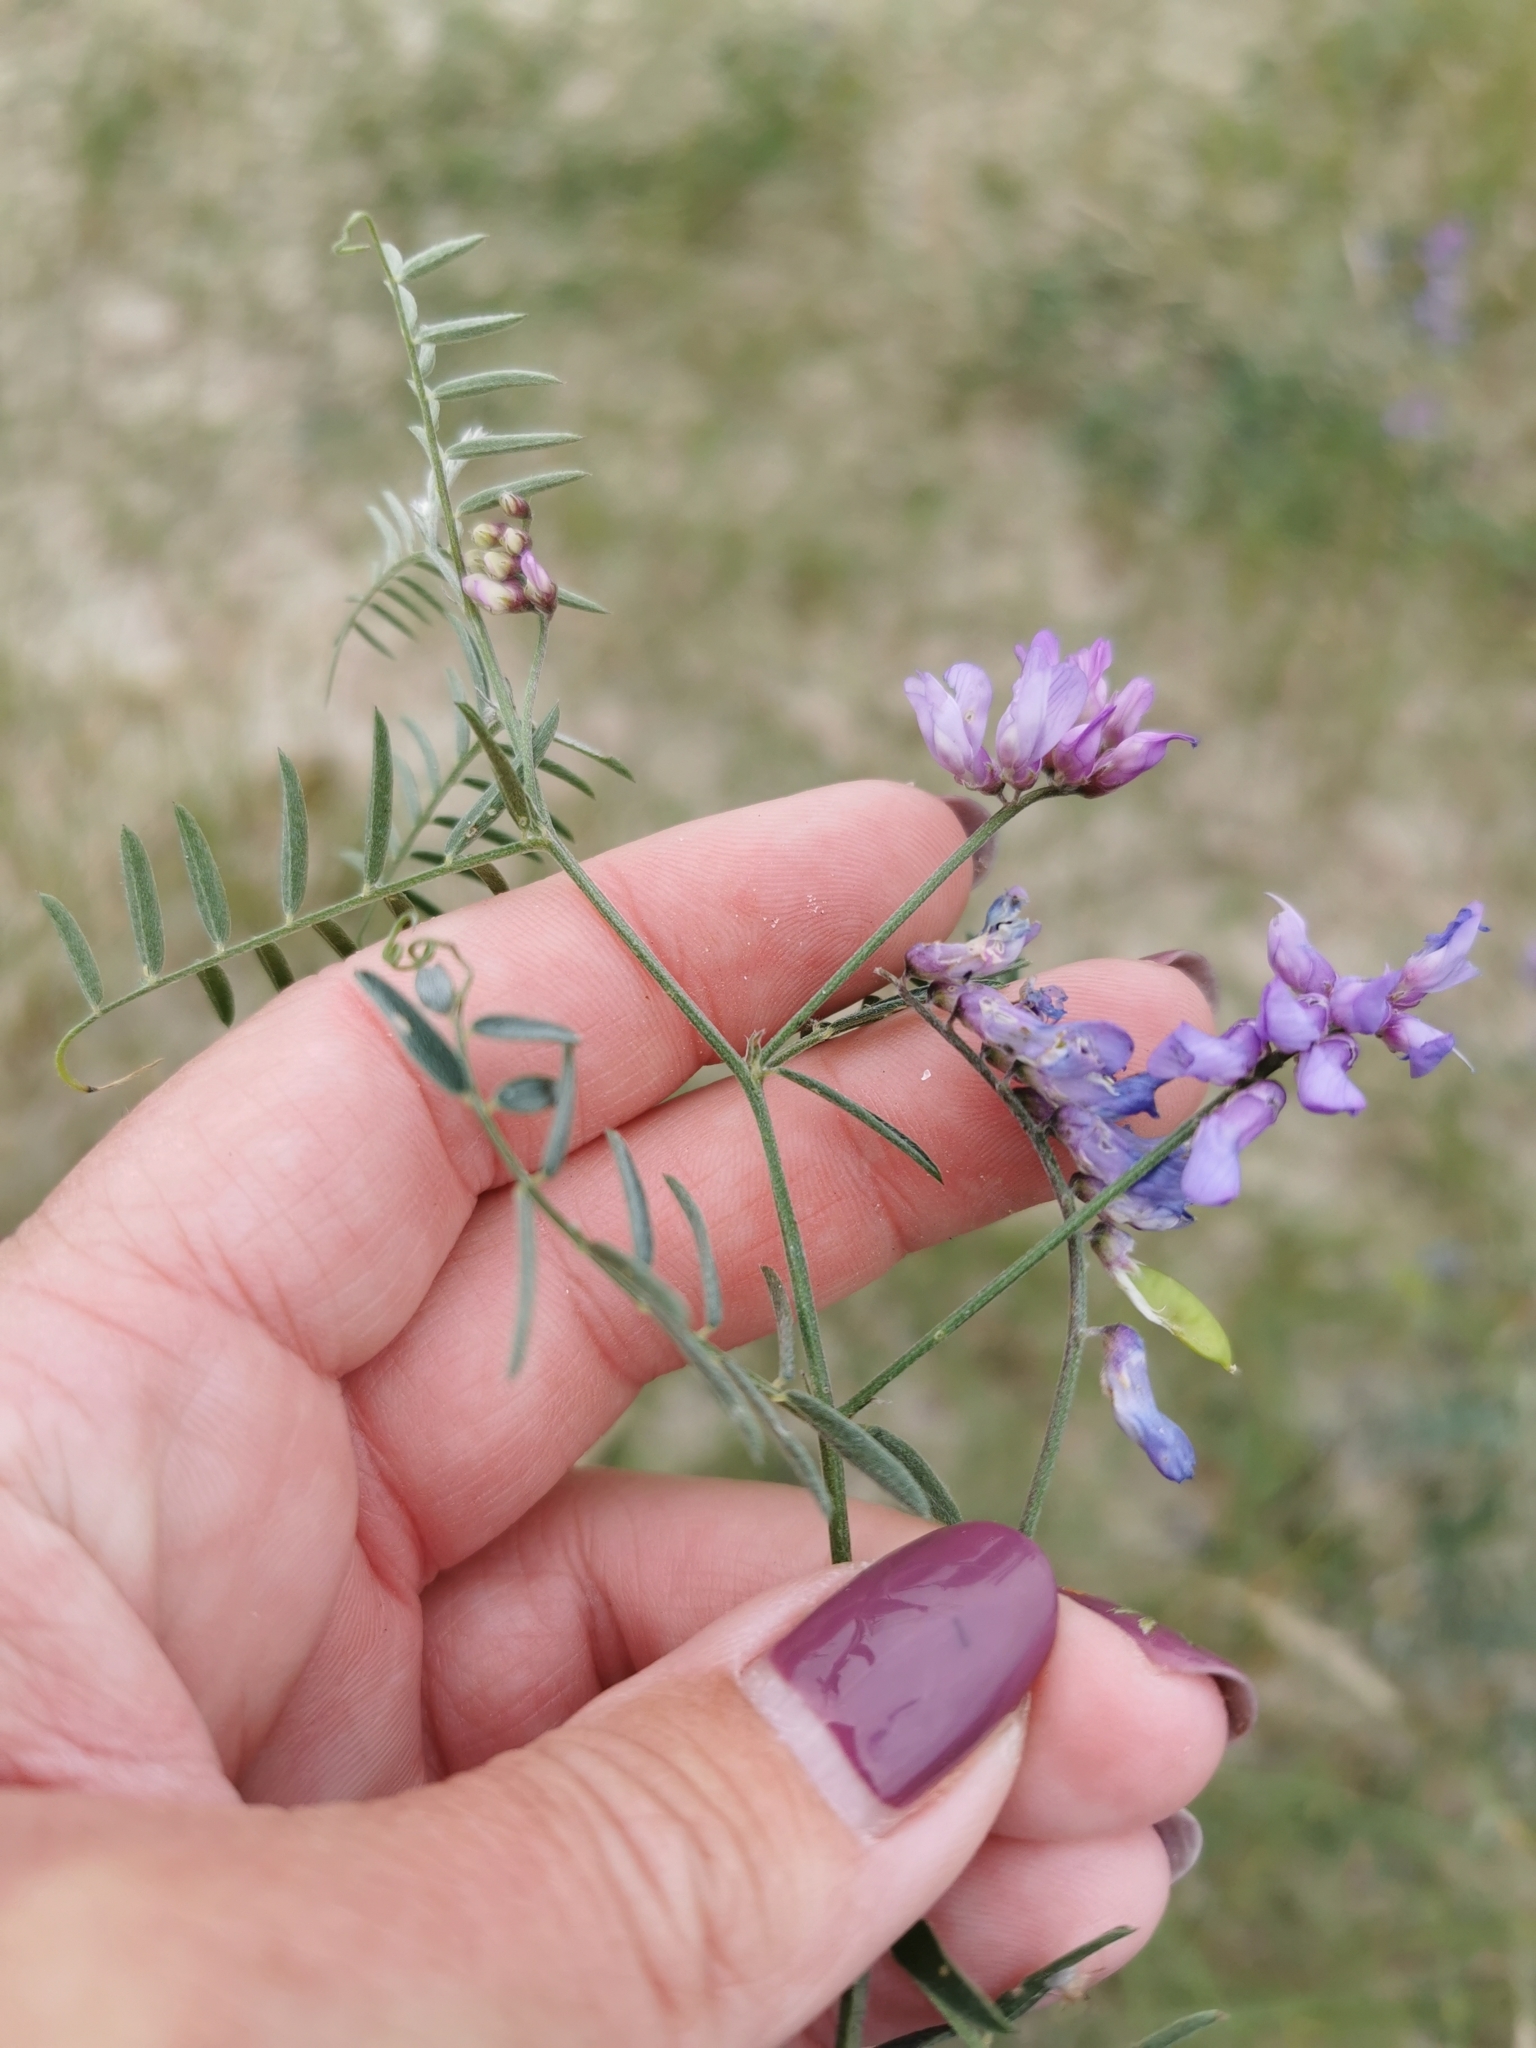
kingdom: Plantae
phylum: Tracheophyta
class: Magnoliopsida
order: Fabales
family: Fabaceae
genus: Vicia
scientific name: Vicia cracca
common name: Bird vetch
